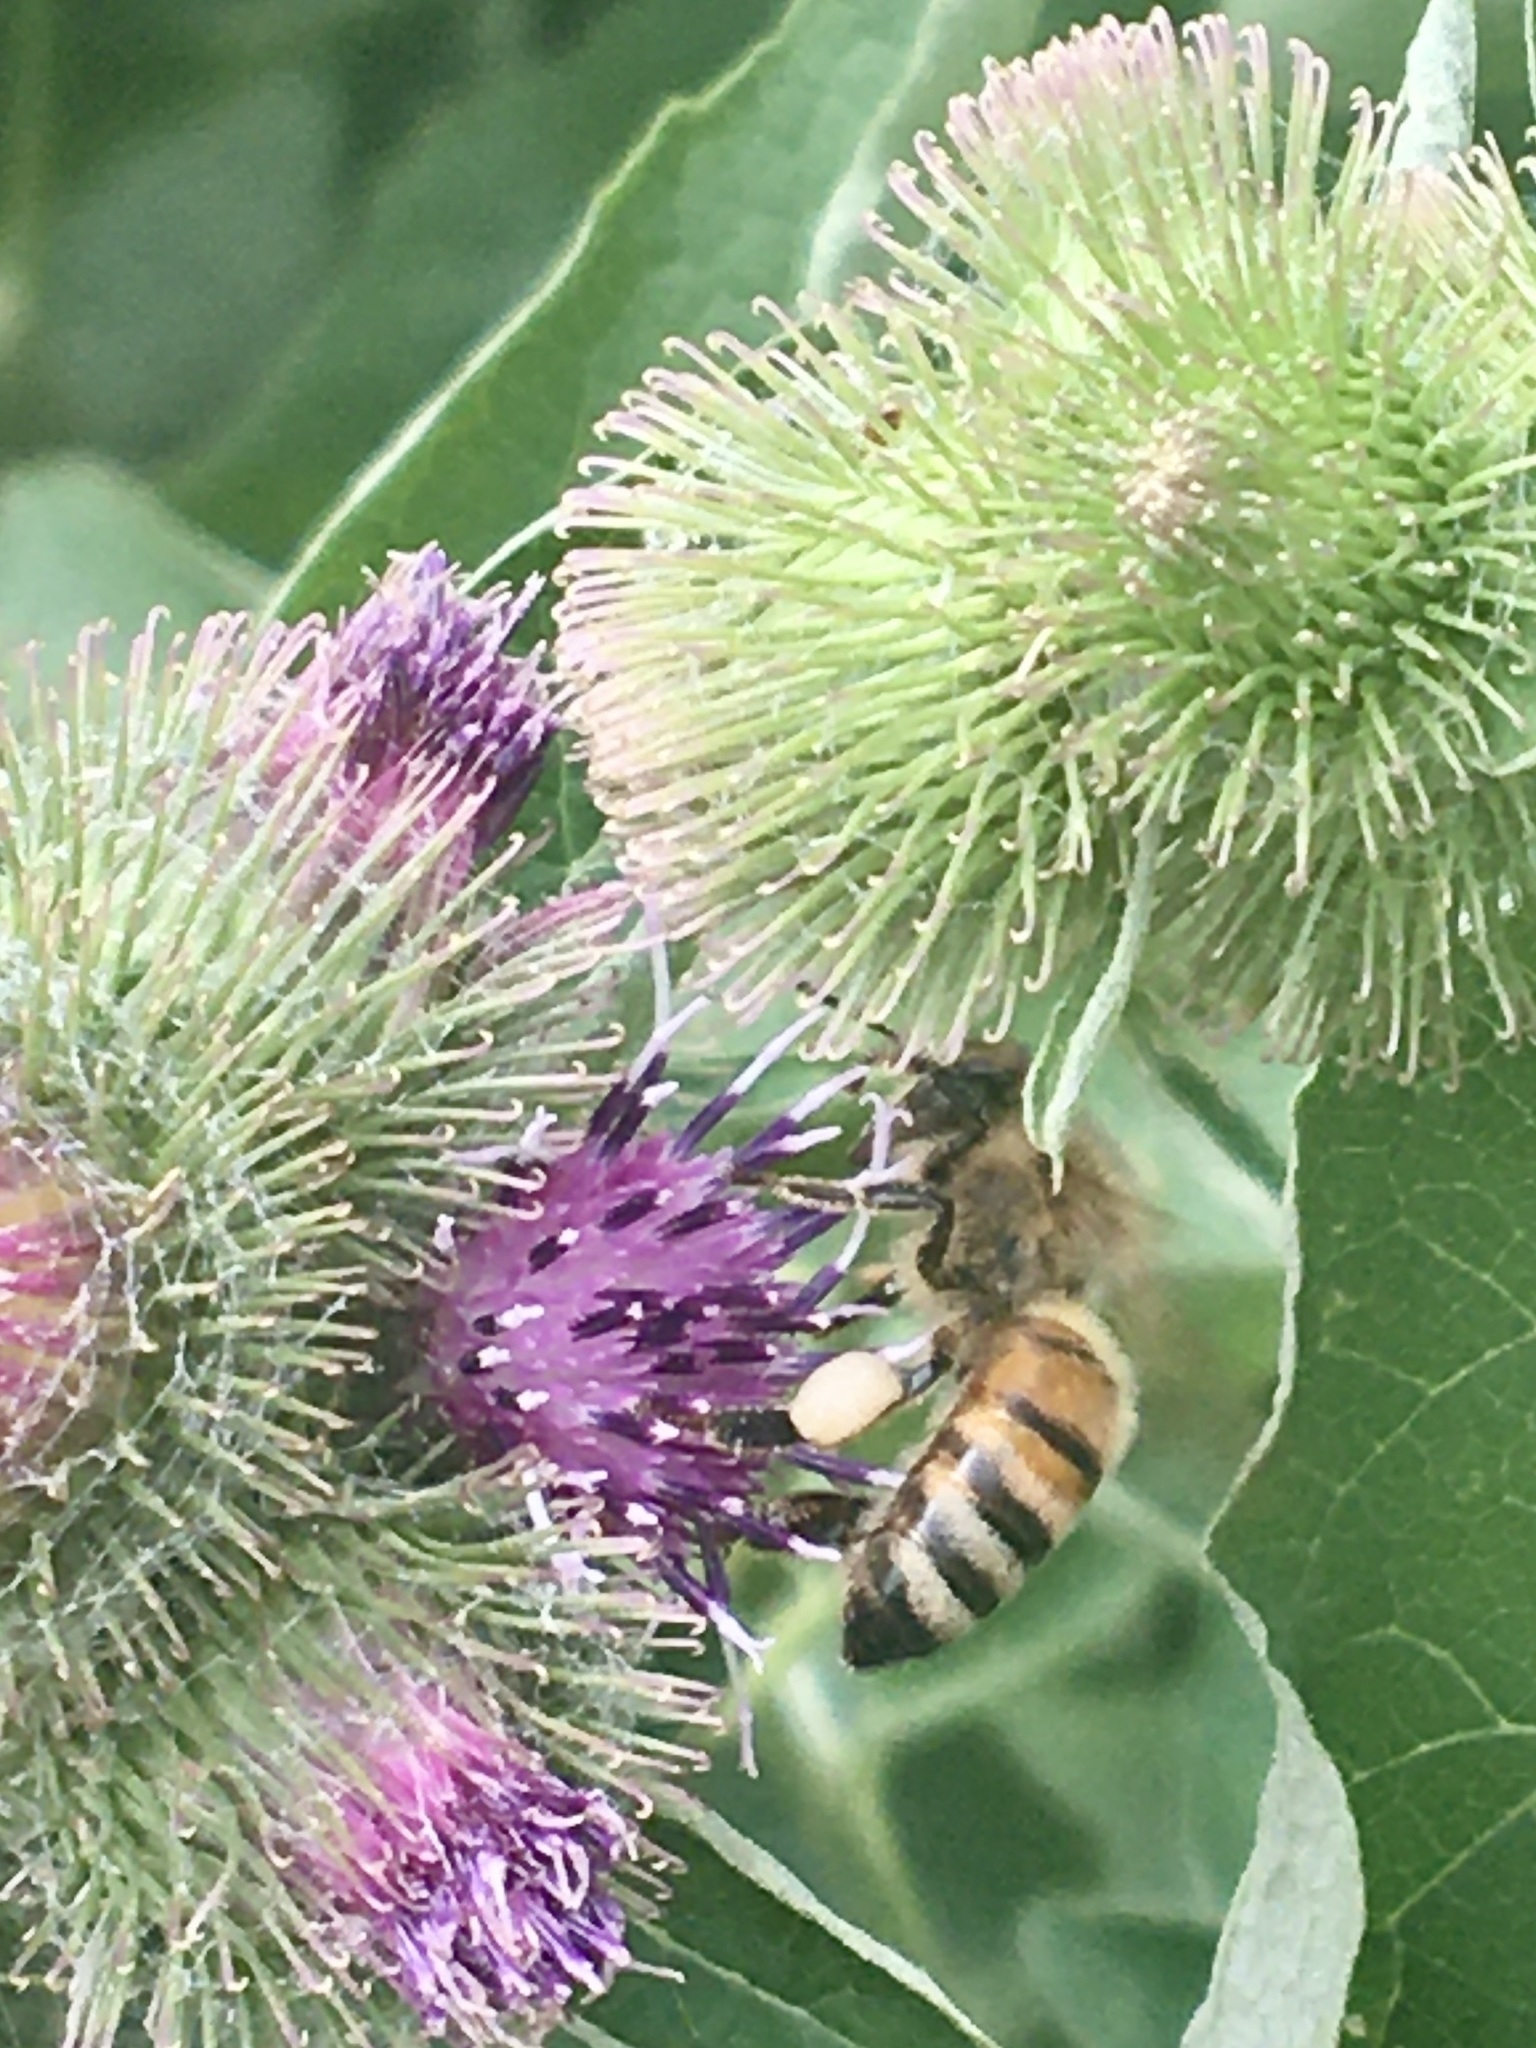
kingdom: Animalia
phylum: Arthropoda
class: Insecta
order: Hymenoptera
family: Apidae
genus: Apis
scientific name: Apis mellifera
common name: Honey bee
